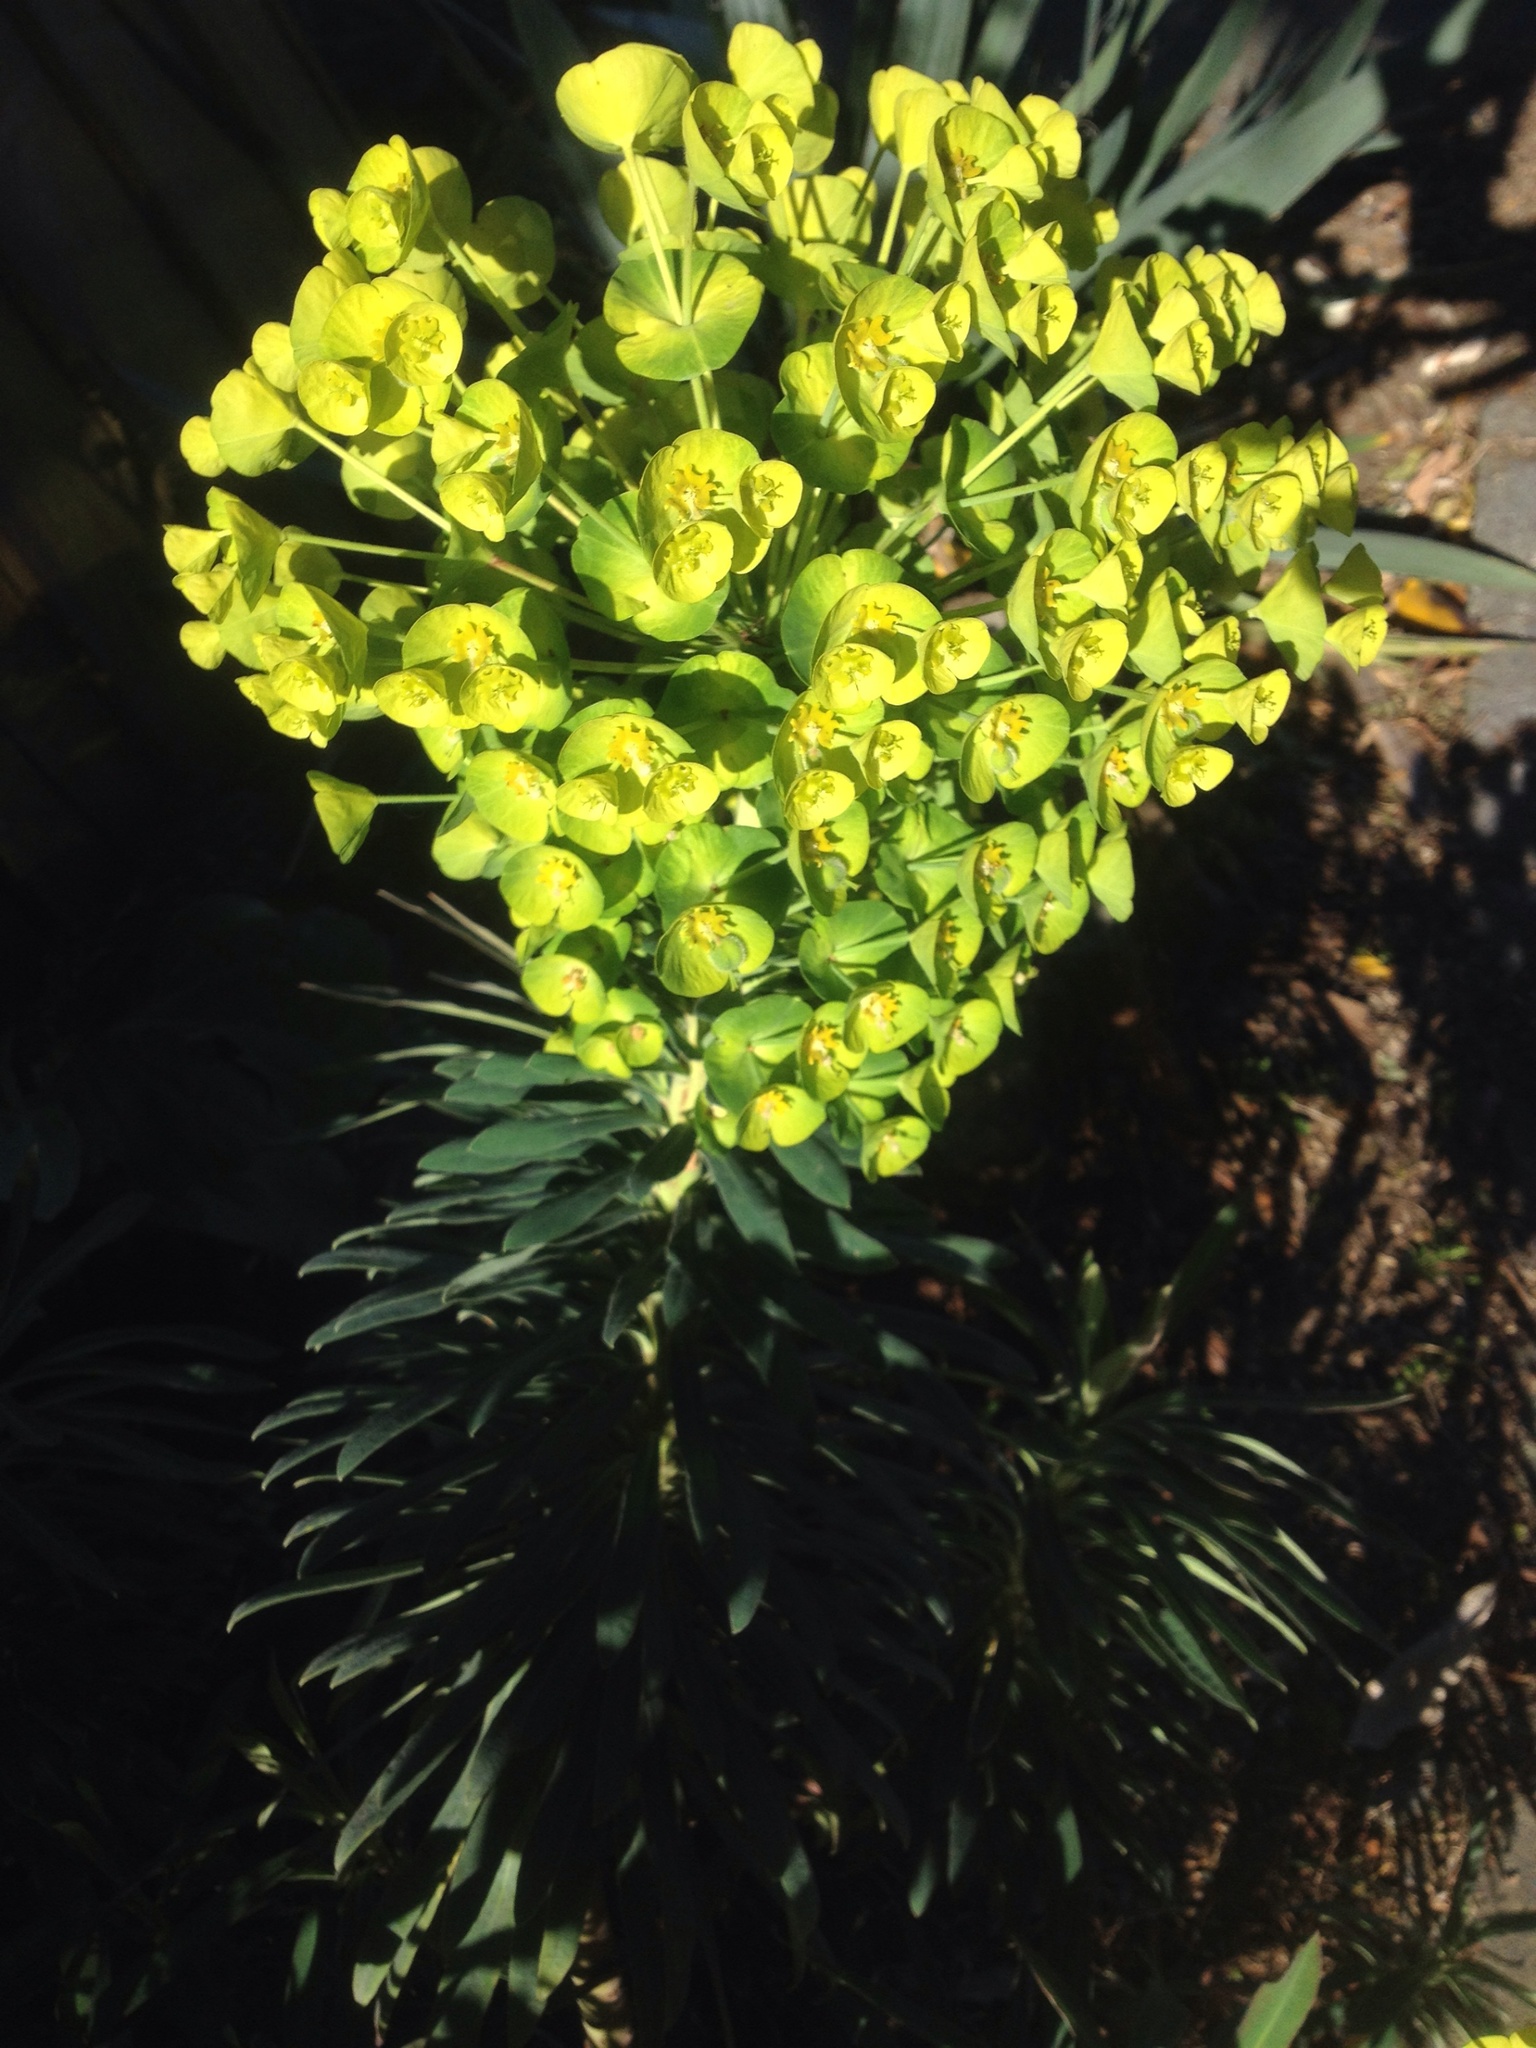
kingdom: Plantae
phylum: Tracheophyta
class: Magnoliopsida
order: Malpighiales
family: Euphorbiaceae
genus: Euphorbia
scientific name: Euphorbia characias
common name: Mediterranean spurge
